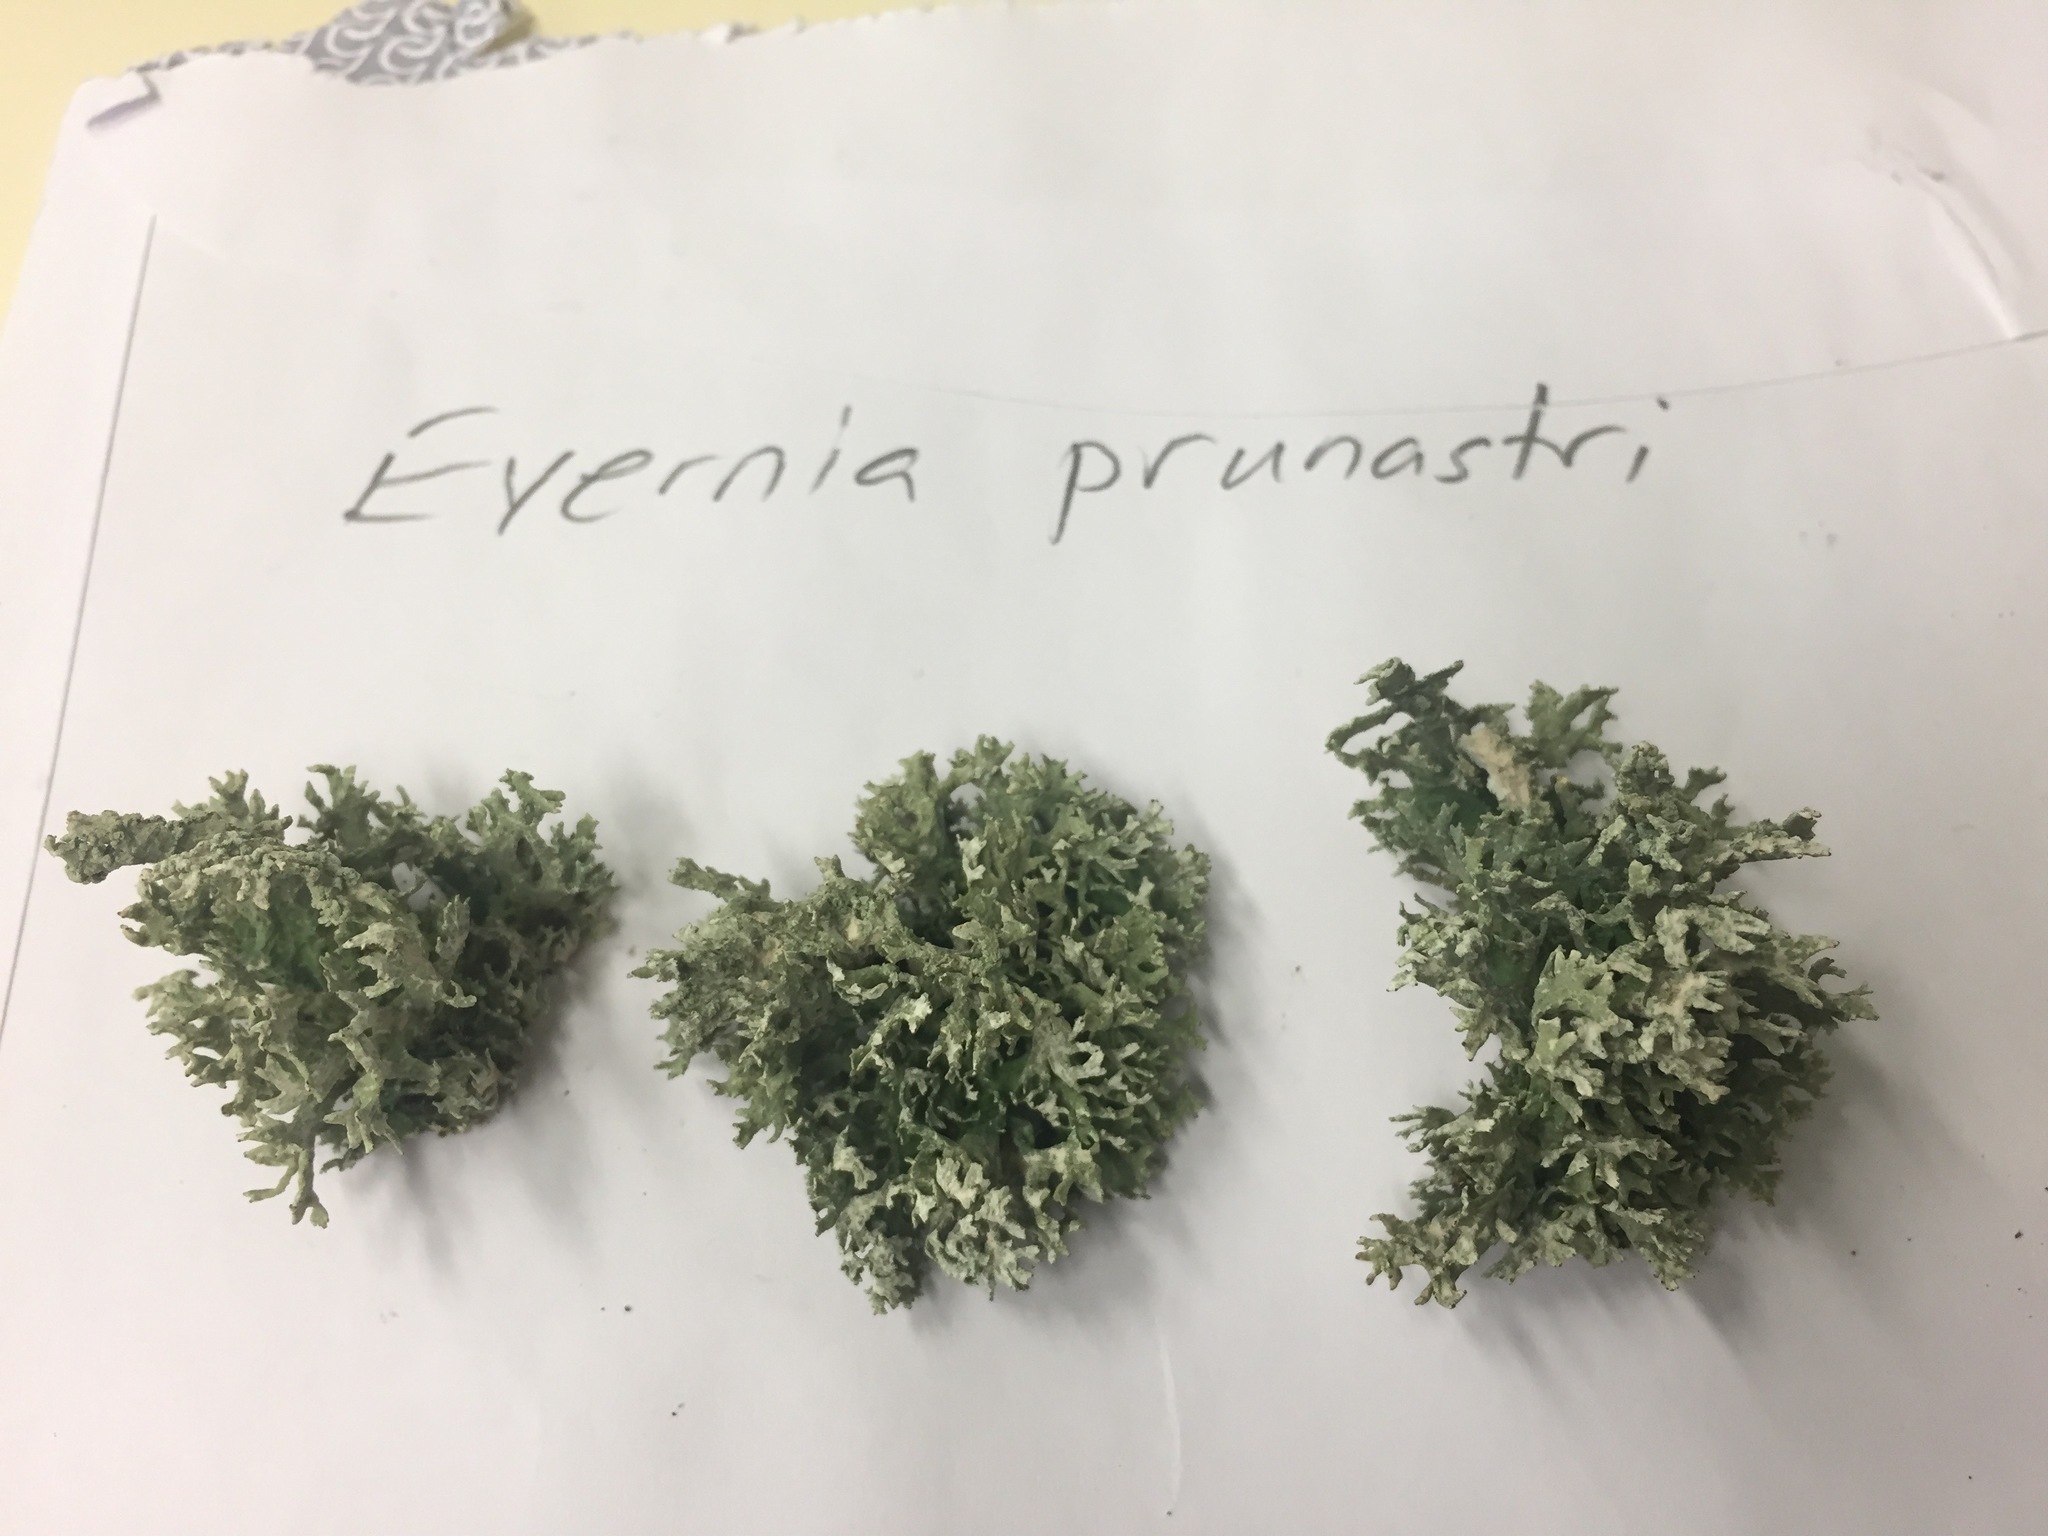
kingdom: Fungi
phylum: Ascomycota
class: Lecanoromycetes
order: Lecanorales
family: Parmeliaceae
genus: Evernia
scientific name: Evernia prunastri
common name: Oak moss
